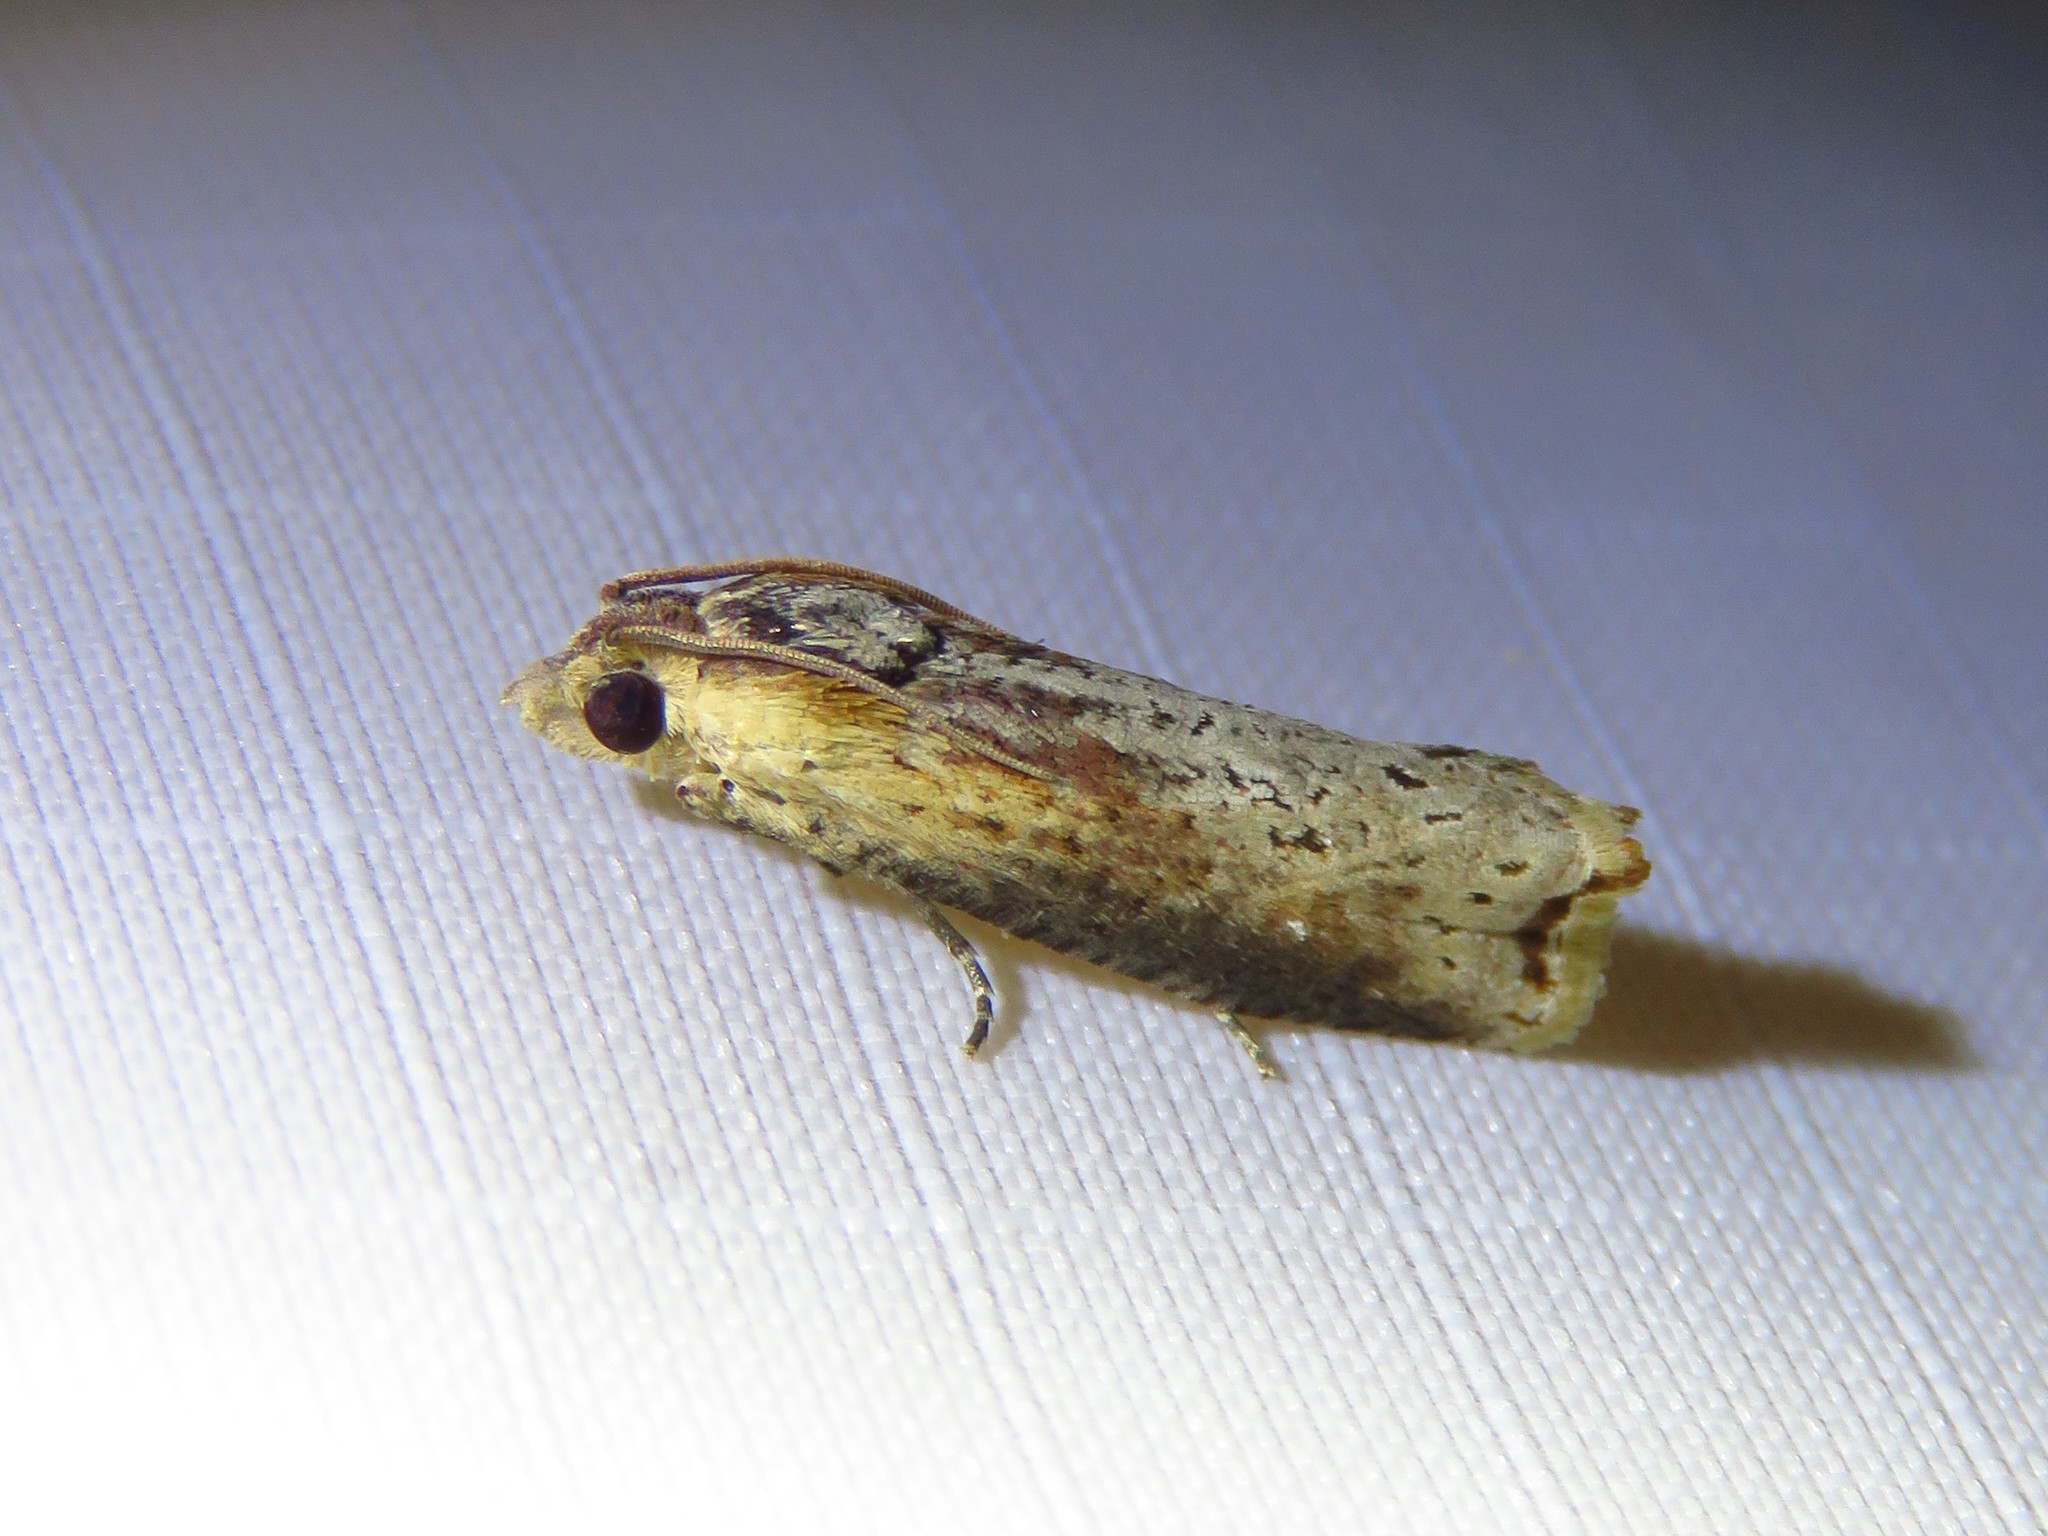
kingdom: Animalia
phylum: Arthropoda
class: Insecta
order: Lepidoptera
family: Tortricidae
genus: Pseudogalleria
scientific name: Pseudogalleria inimicella
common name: Inimical borer moth
